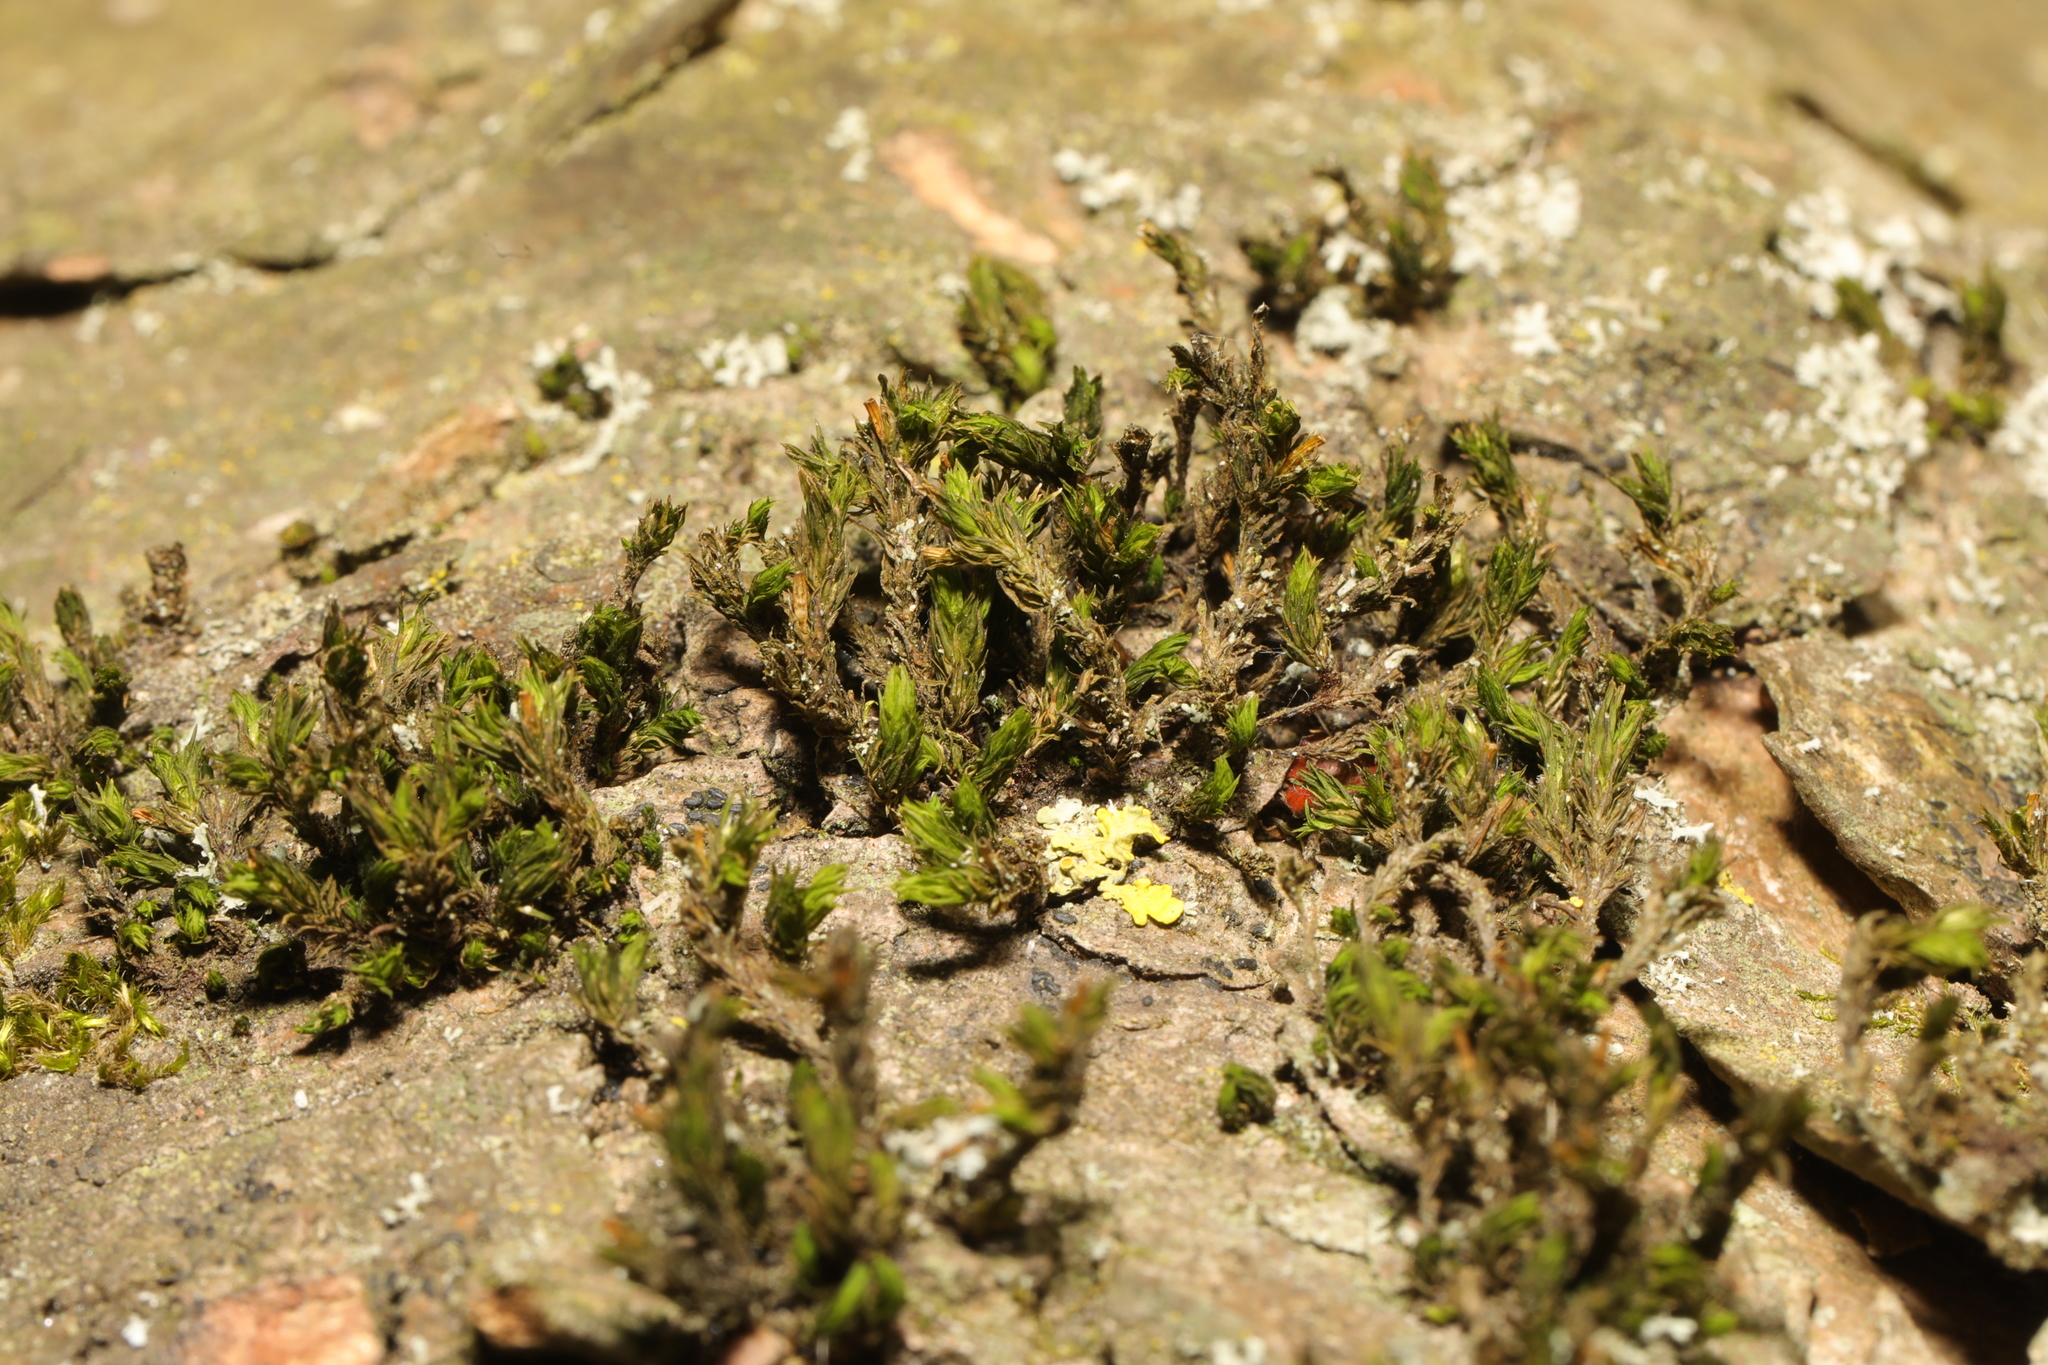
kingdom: Plantae
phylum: Bryophyta
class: Bryopsida
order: Orthotrichales
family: Orthotrichaceae
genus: Lewinskya
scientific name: Lewinskya affinis
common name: Wood bristle-moss
